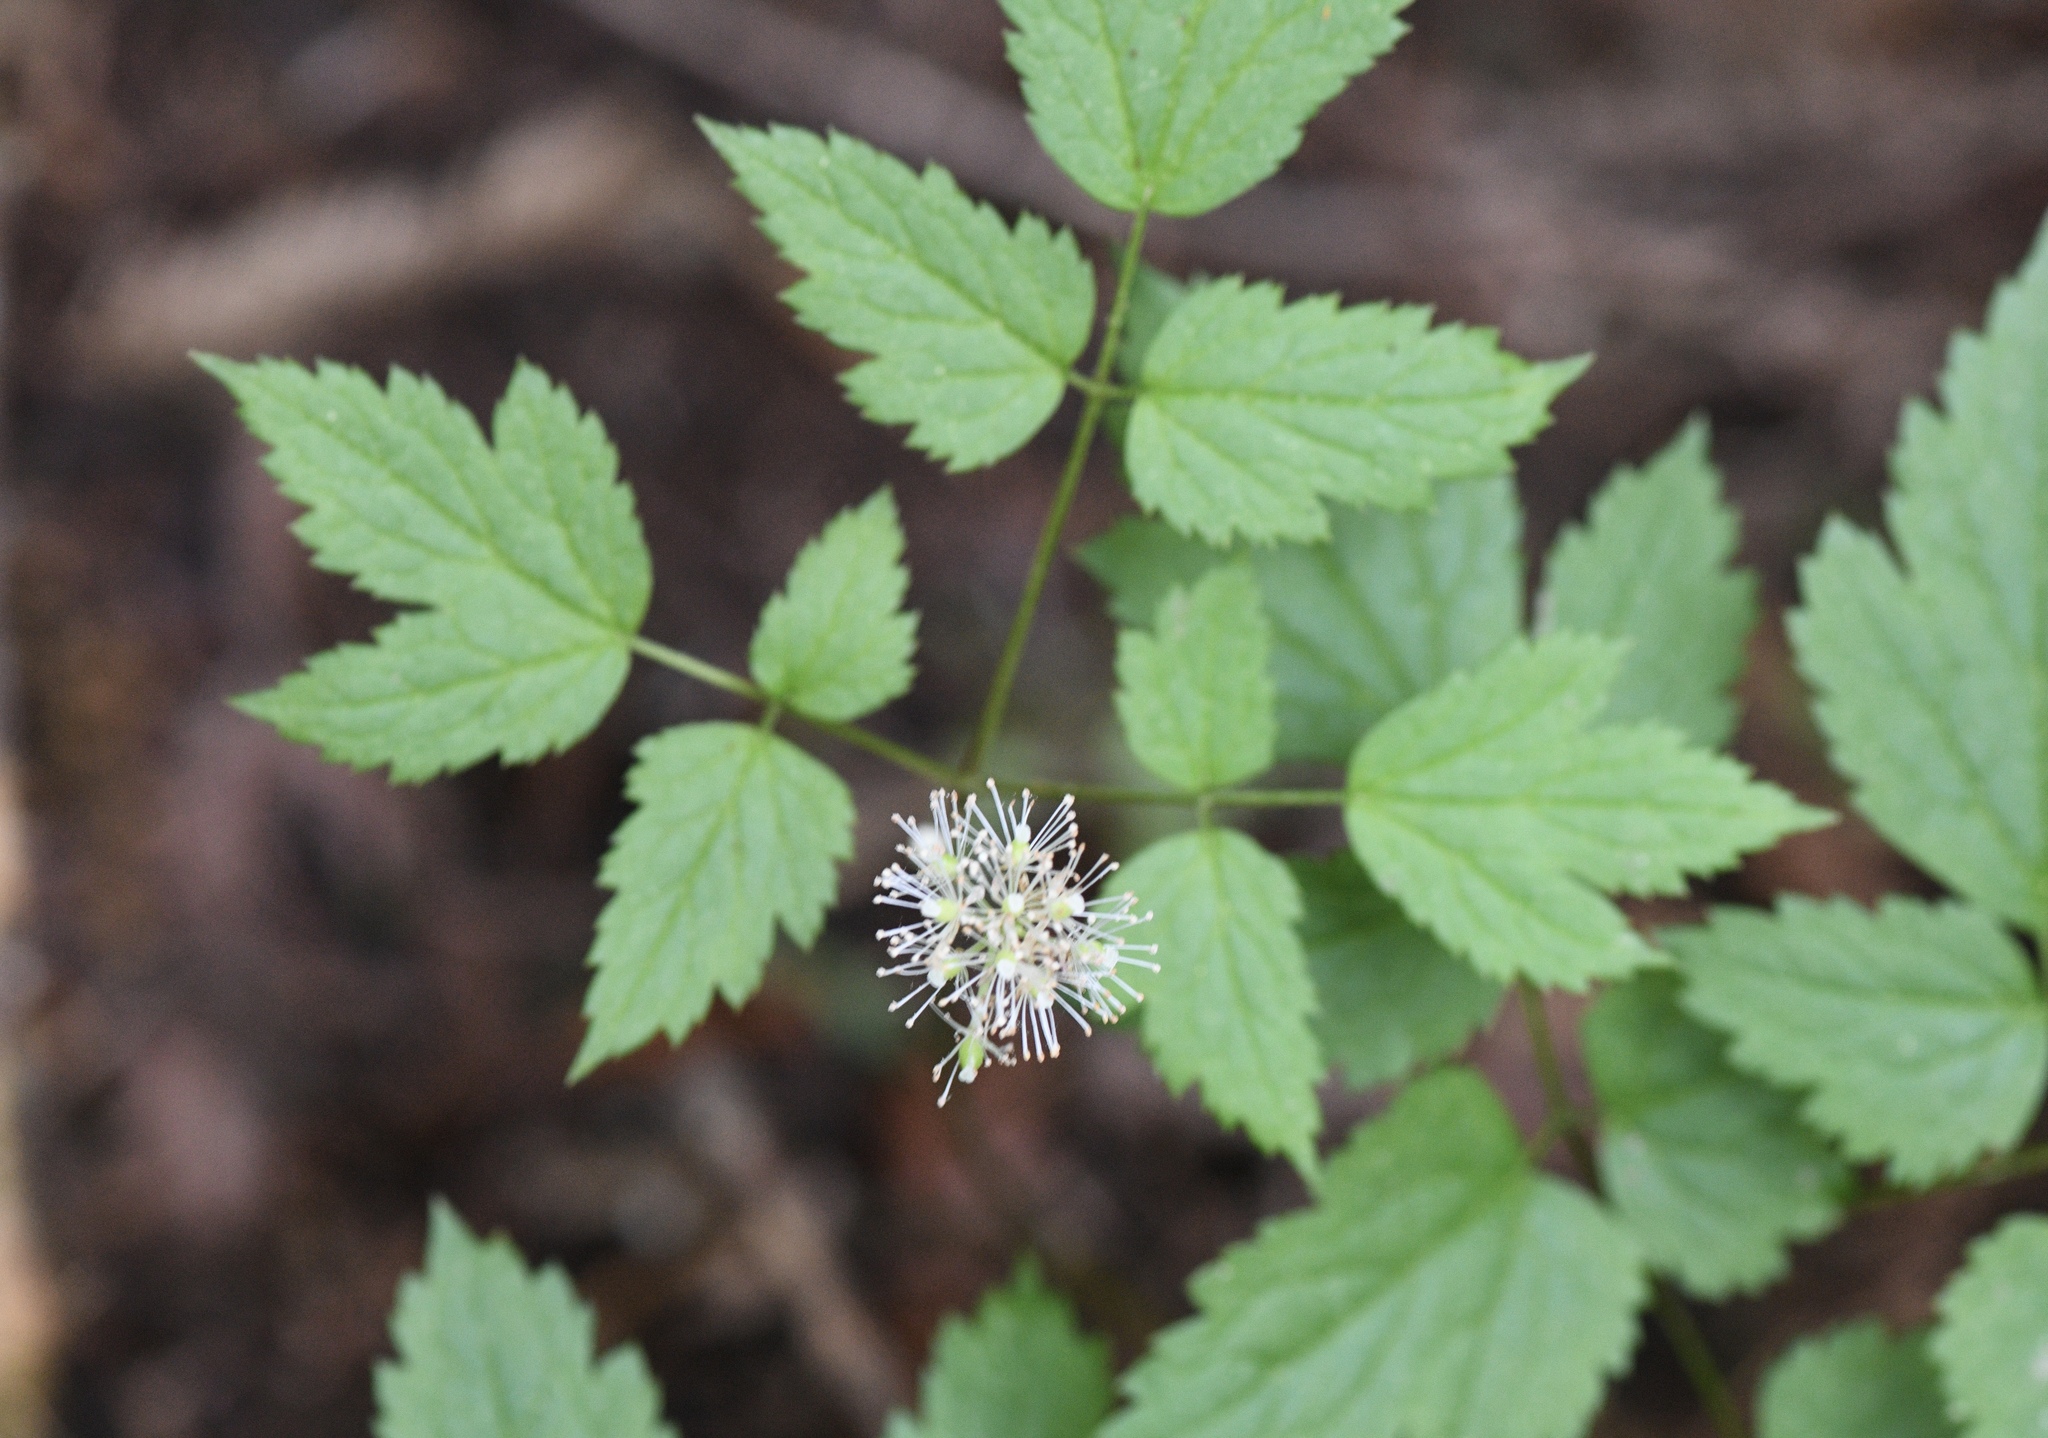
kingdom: Plantae
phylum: Tracheophyta
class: Magnoliopsida
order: Ranunculales
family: Ranunculaceae
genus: Actaea
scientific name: Actaea rubra
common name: Red baneberry
